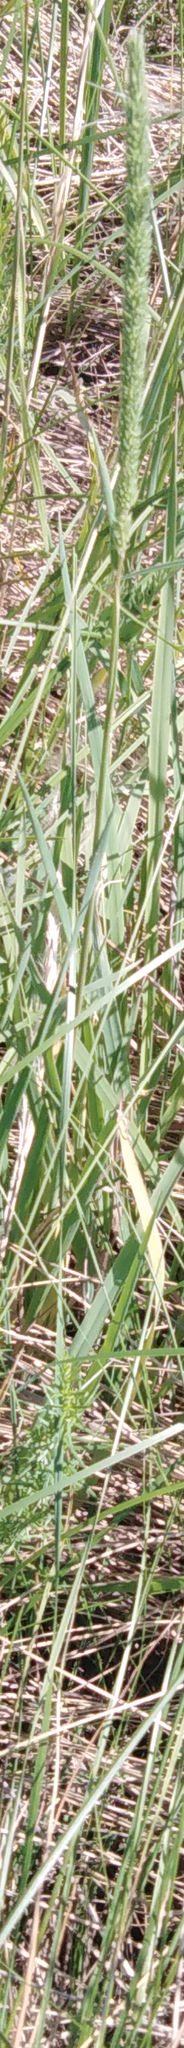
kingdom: Plantae
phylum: Tracheophyta
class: Liliopsida
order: Poales
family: Poaceae
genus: Phleum
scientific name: Phleum phleoides
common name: Purple-stem cat's-tail
